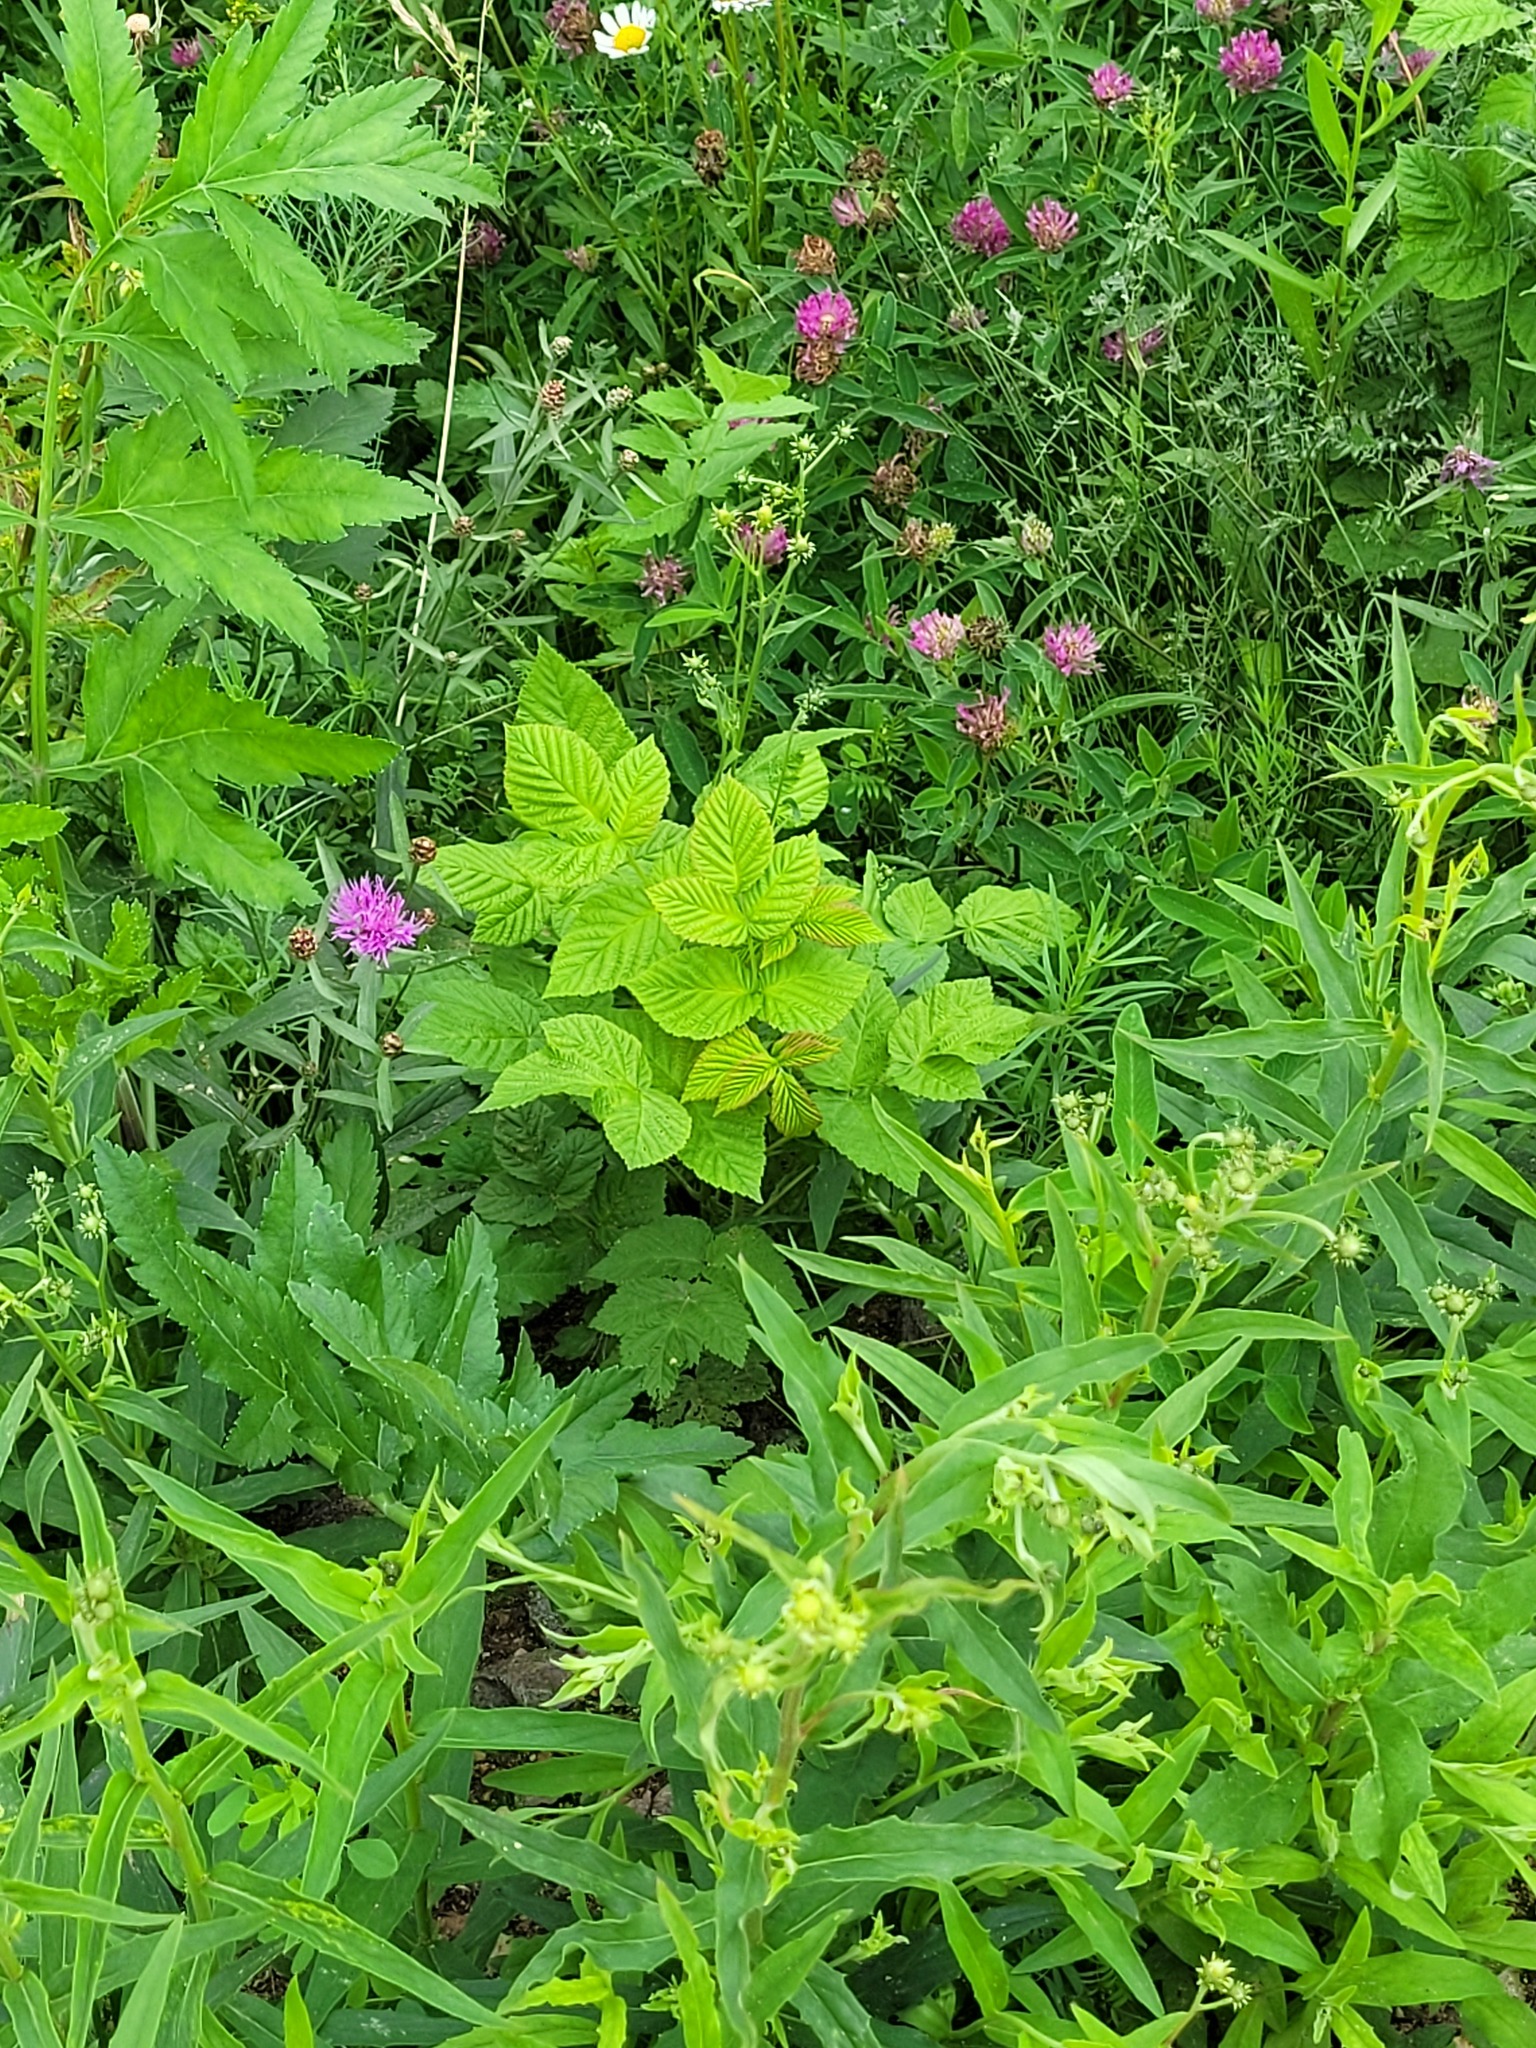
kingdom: Plantae
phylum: Tracheophyta
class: Magnoliopsida
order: Rosales
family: Rosaceae
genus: Rubus
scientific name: Rubus idaeus
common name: Raspberry
